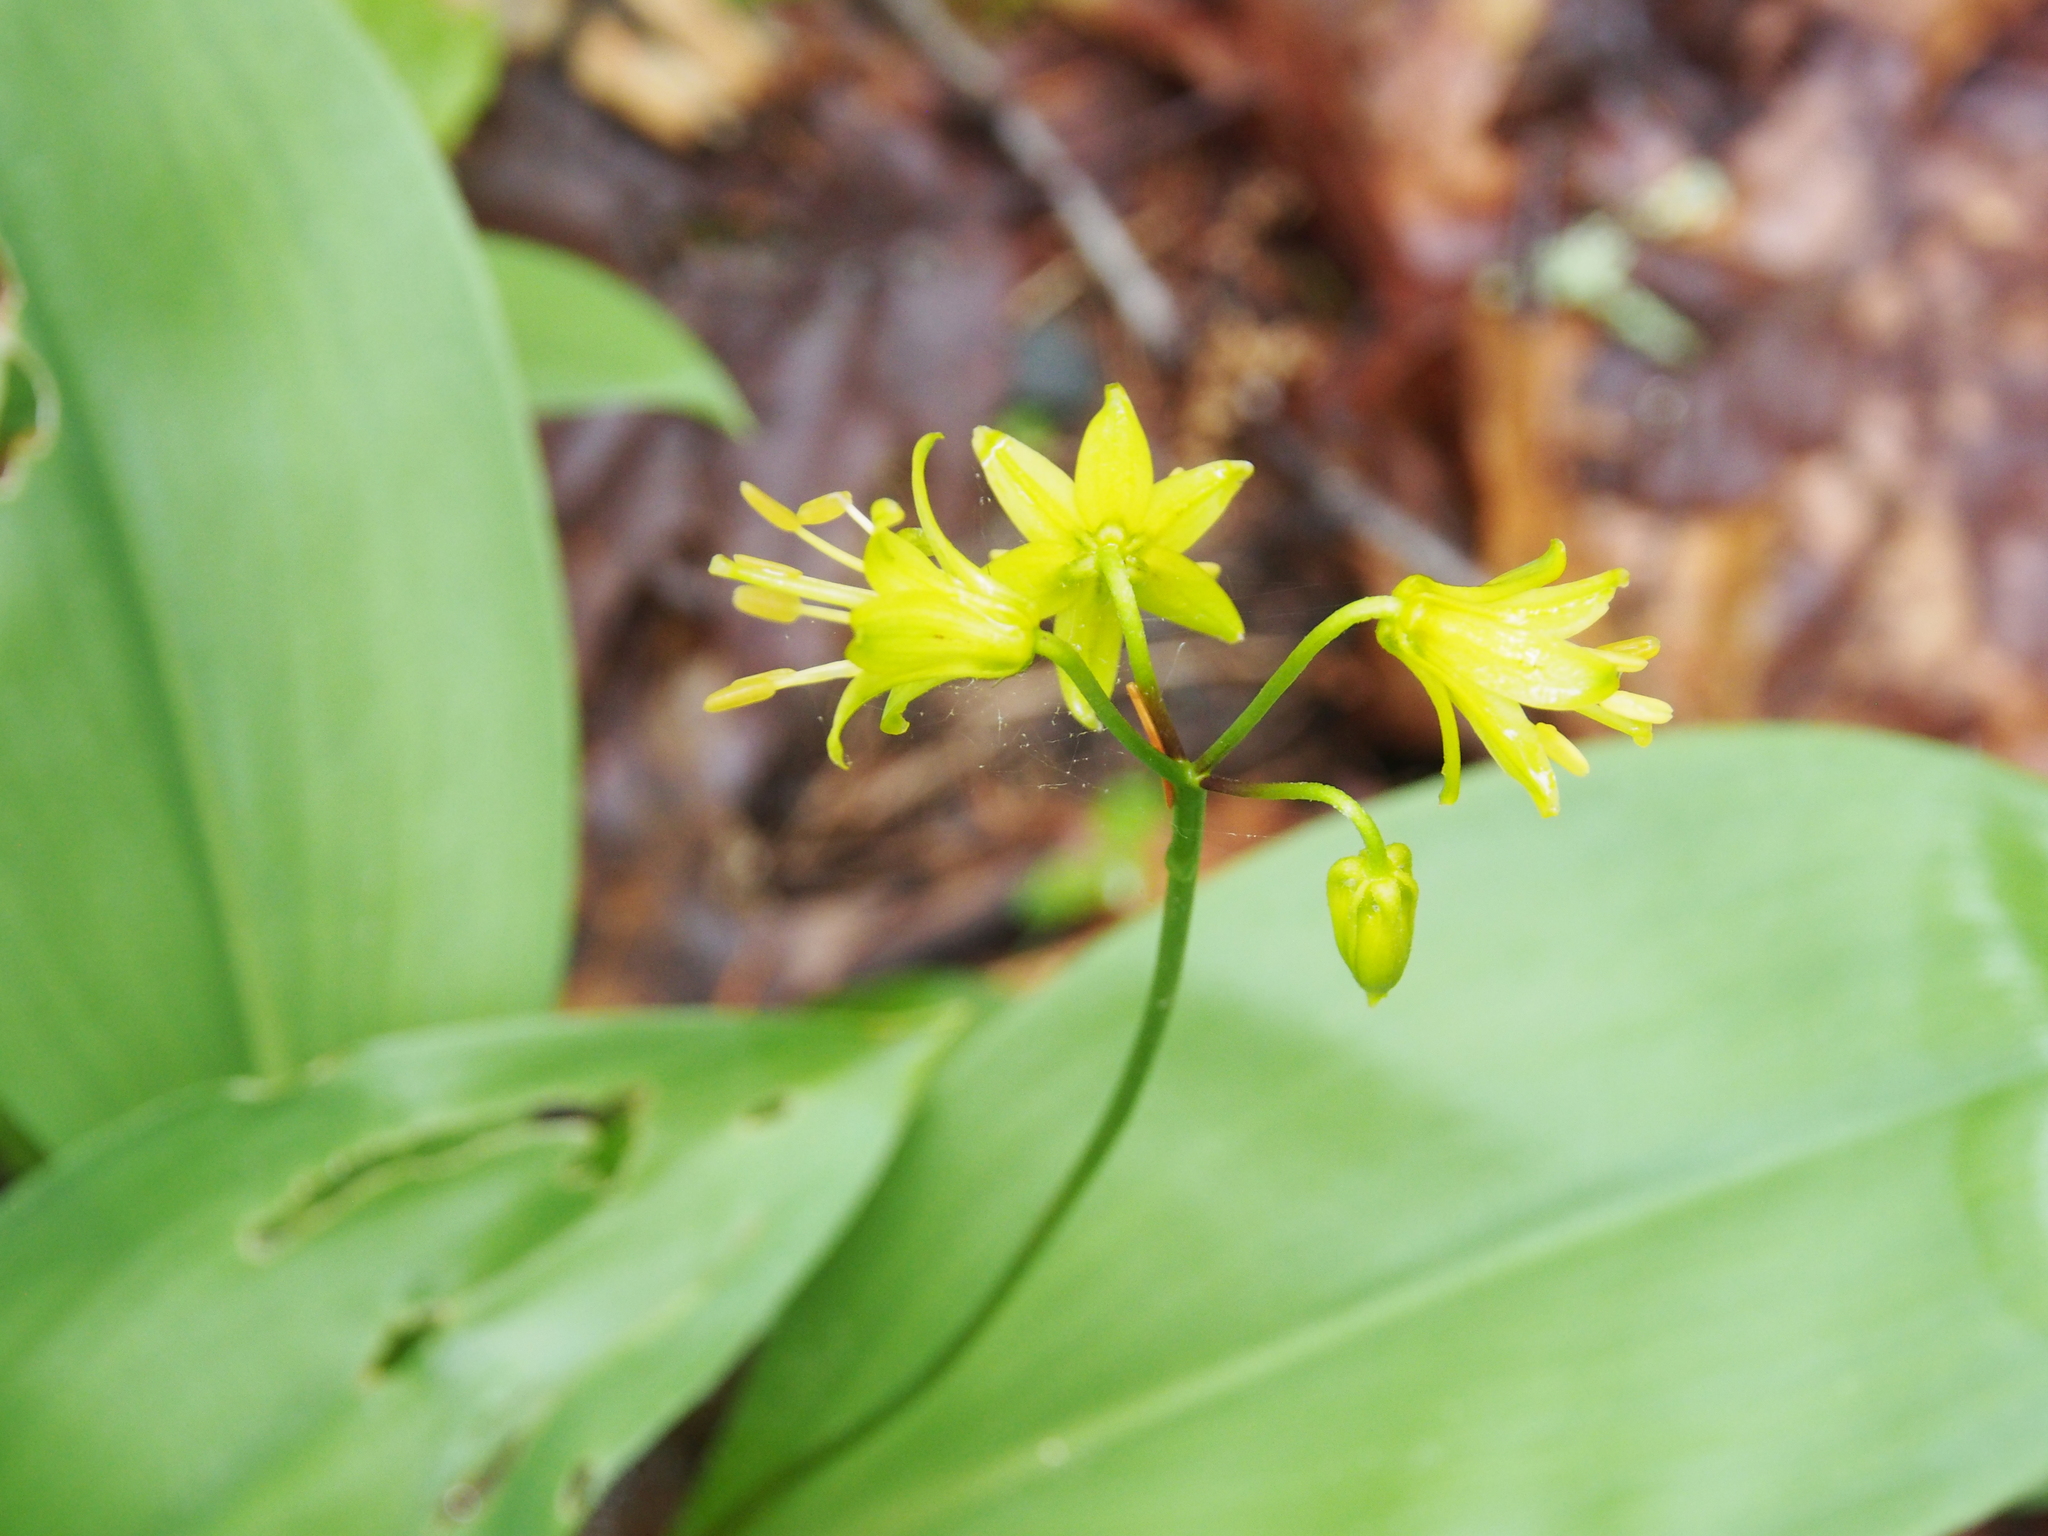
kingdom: Plantae
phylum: Tracheophyta
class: Liliopsida
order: Liliales
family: Liliaceae
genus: Clintonia
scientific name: Clintonia borealis
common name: Yellow clintonia
